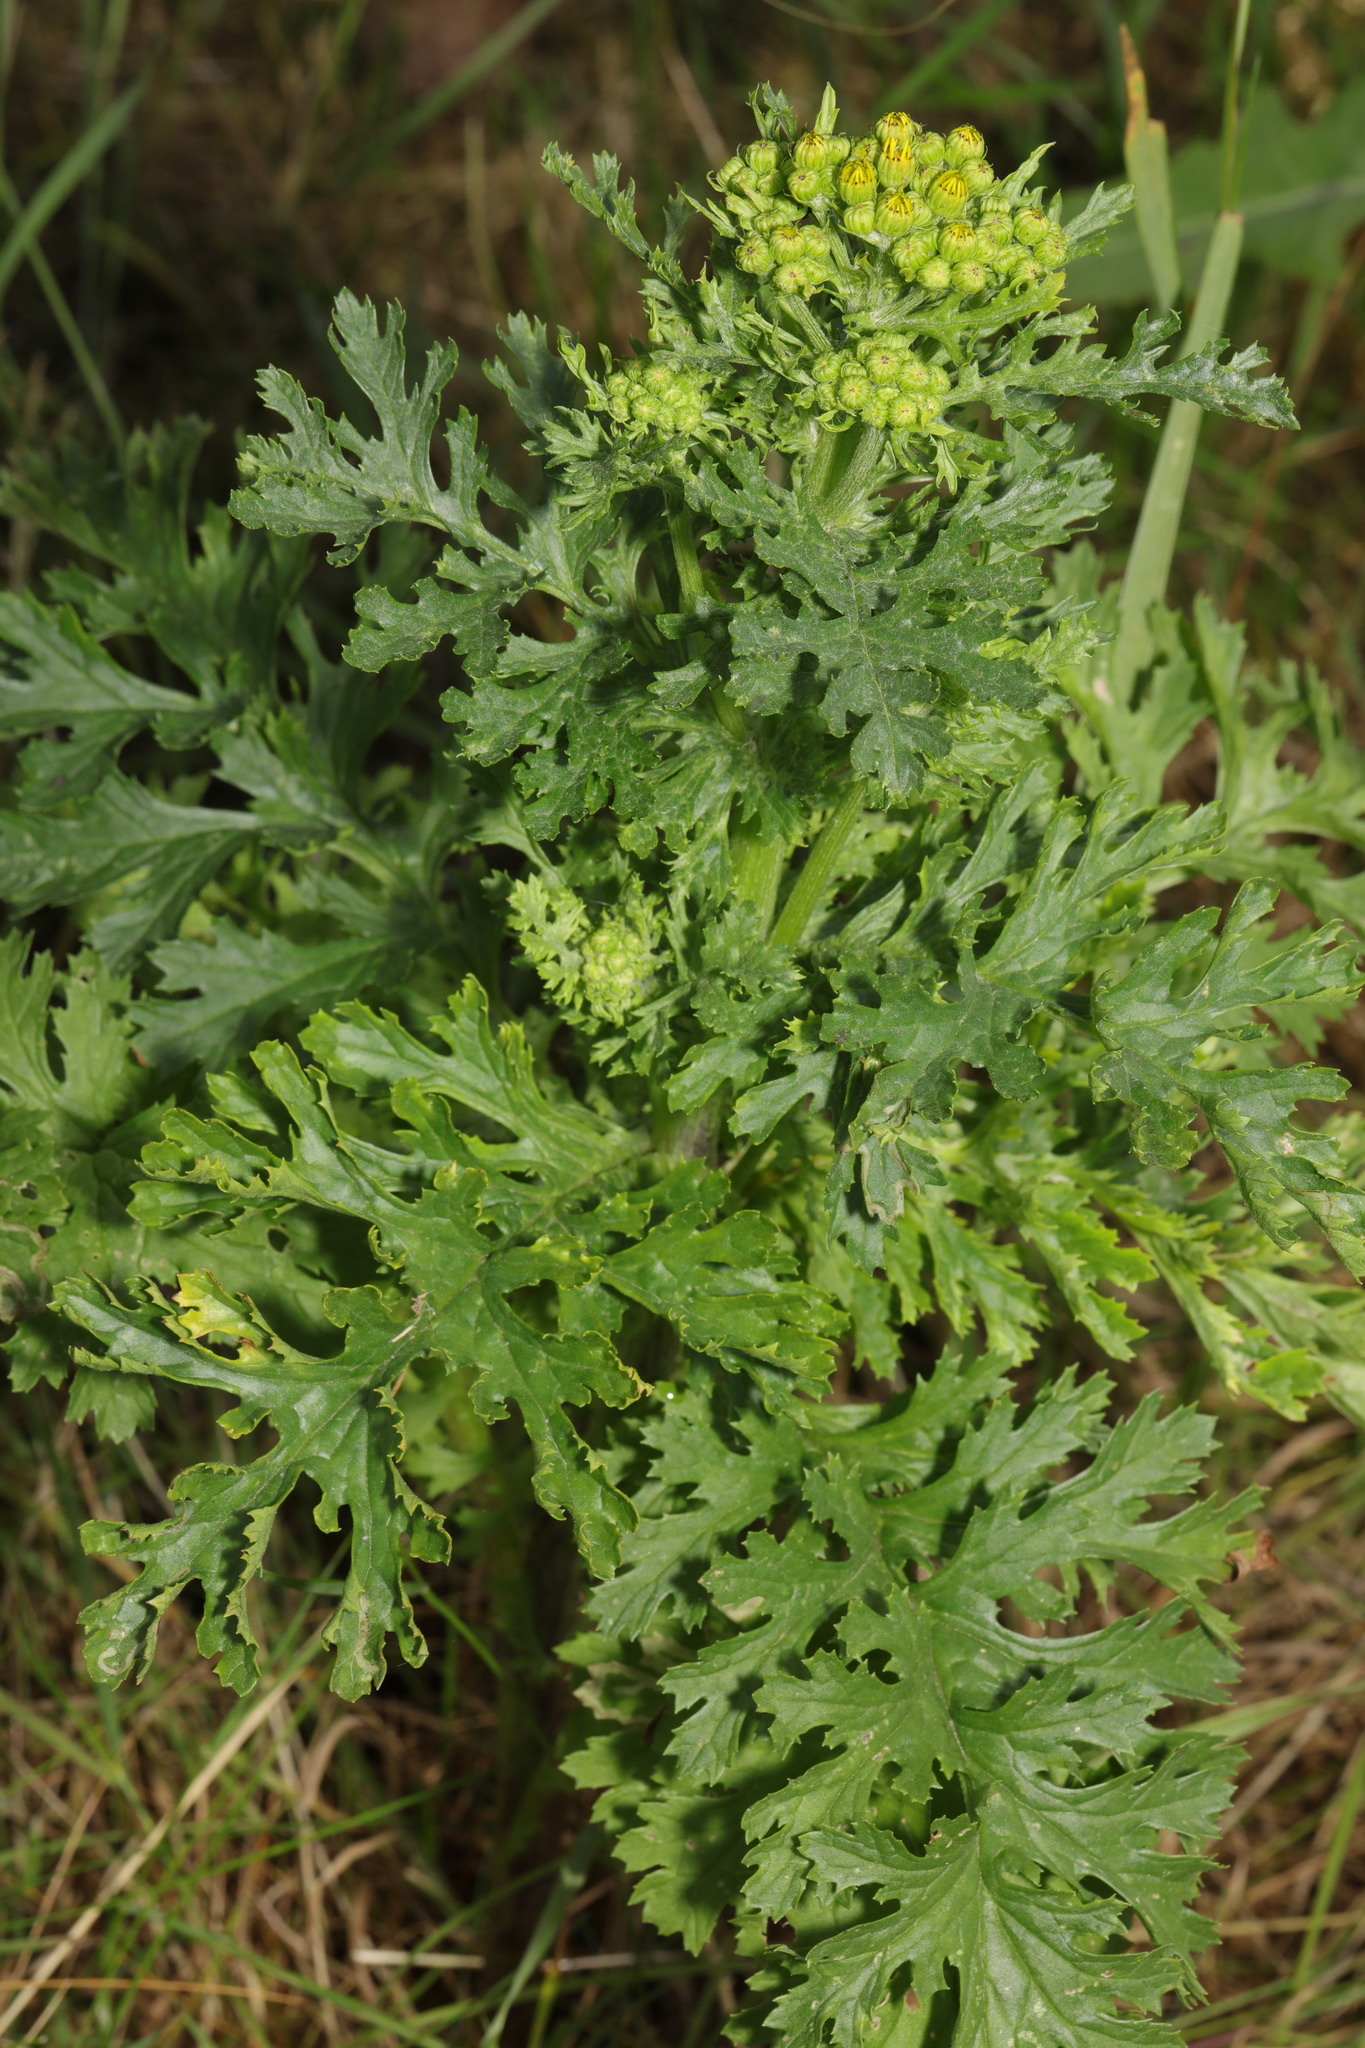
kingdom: Plantae
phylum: Tracheophyta
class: Magnoliopsida
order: Asterales
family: Asteraceae
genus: Jacobaea
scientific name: Jacobaea vulgaris
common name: Stinking willie
